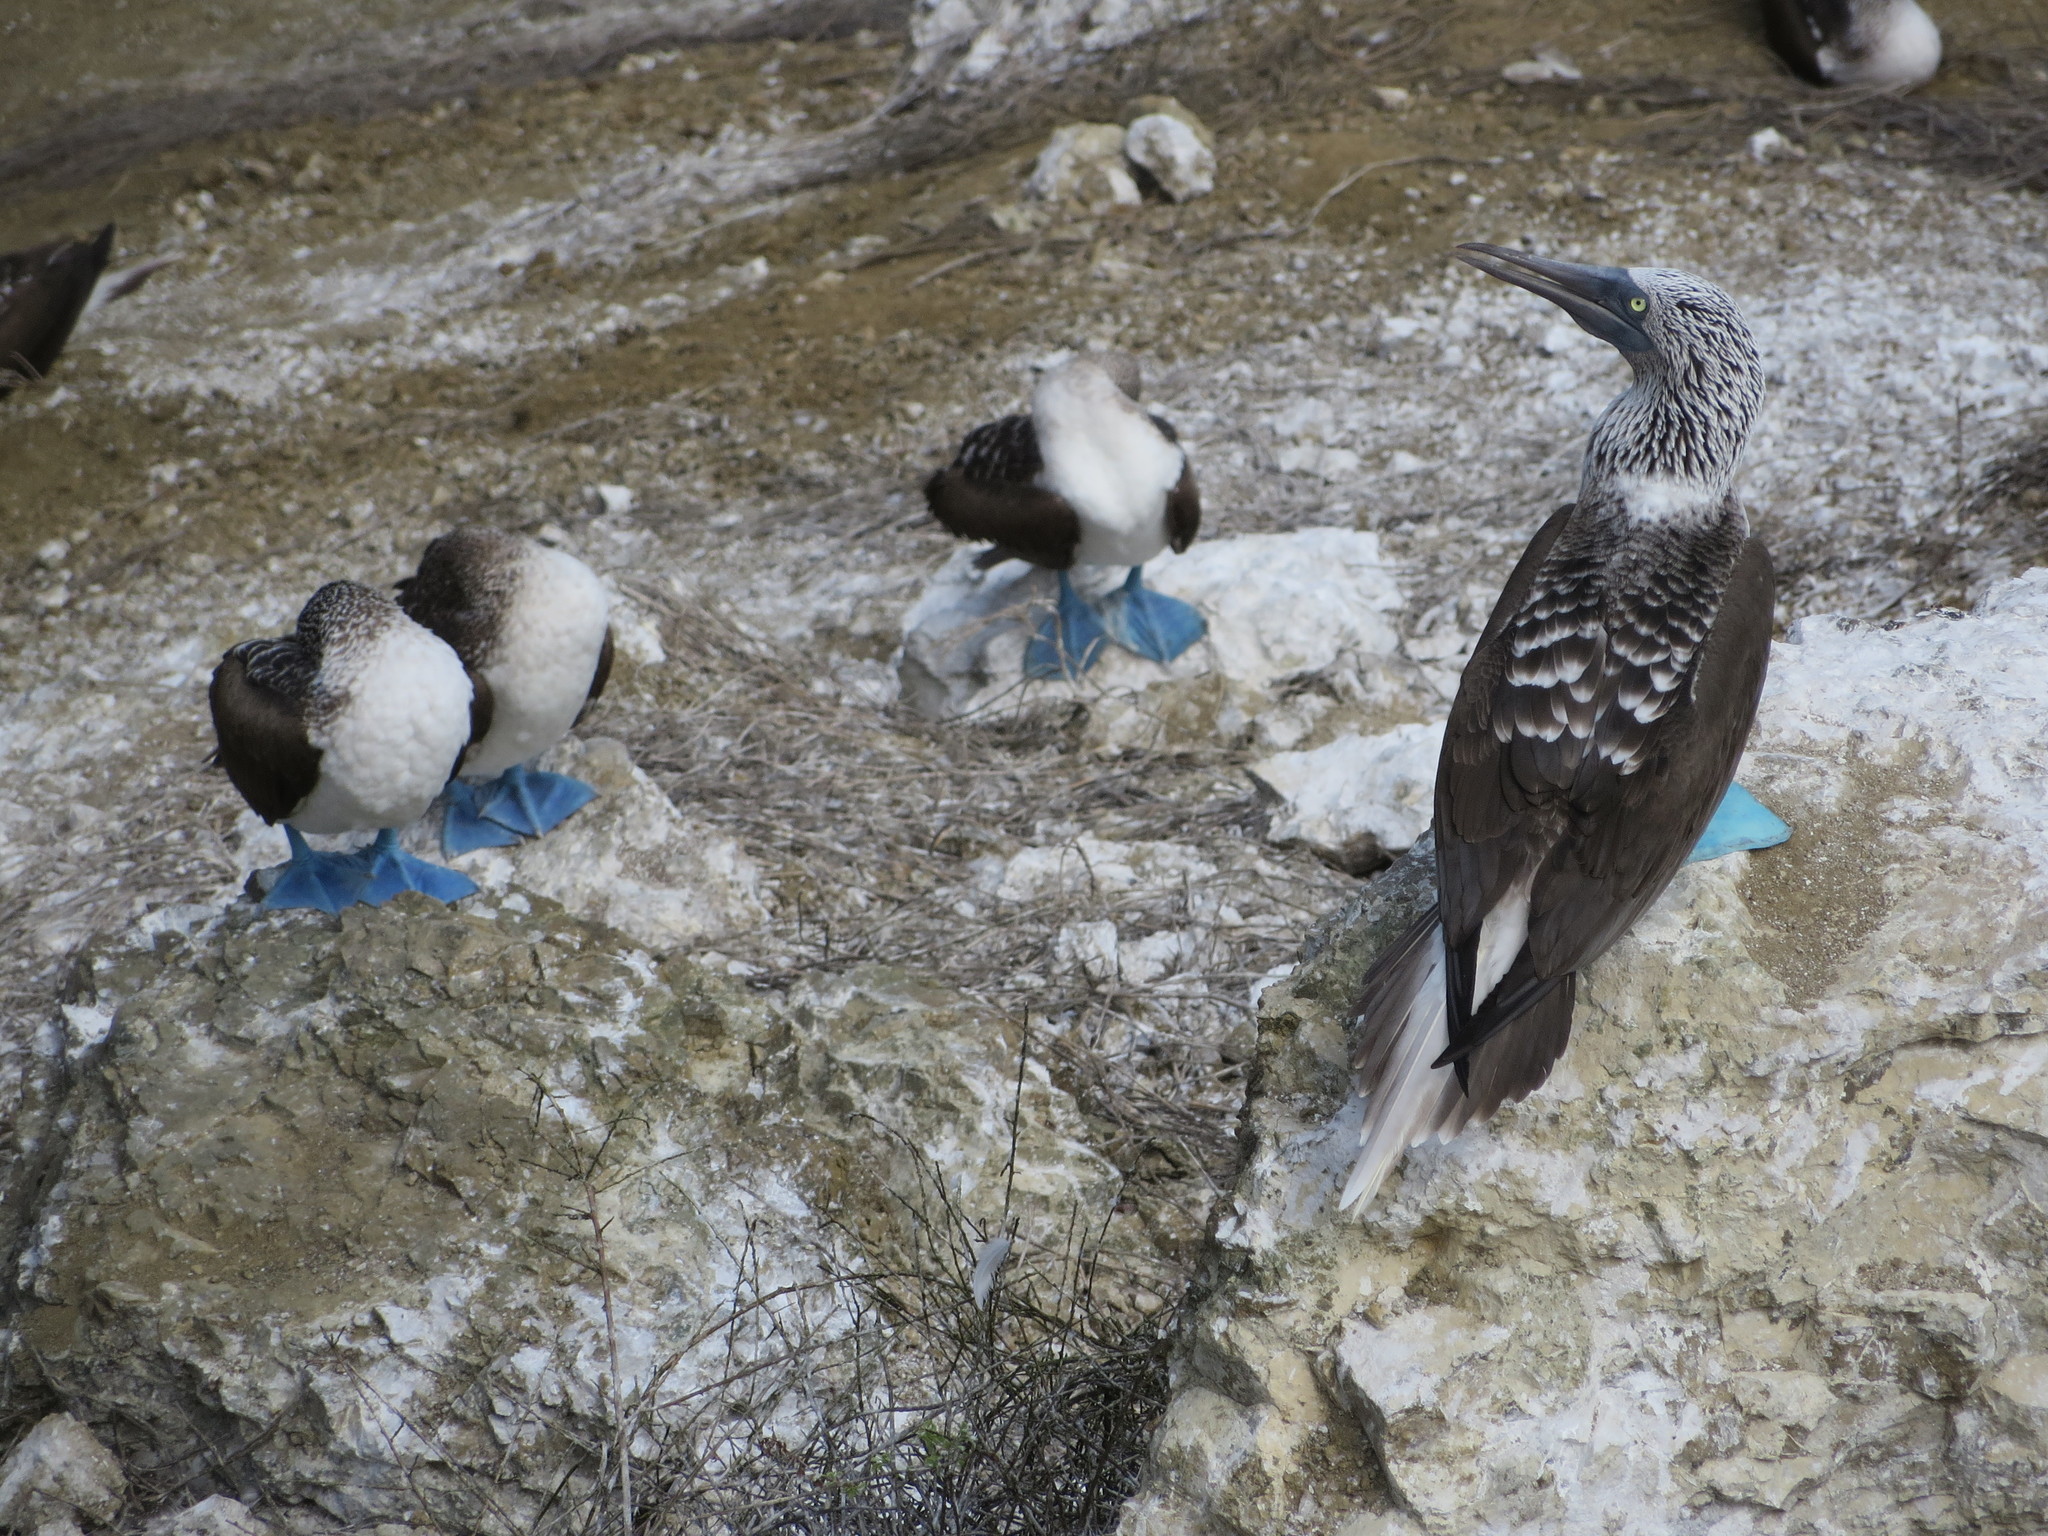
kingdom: Animalia
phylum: Chordata
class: Aves
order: Suliformes
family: Sulidae
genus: Sula
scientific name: Sula nebouxii
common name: Blue-footed booby
